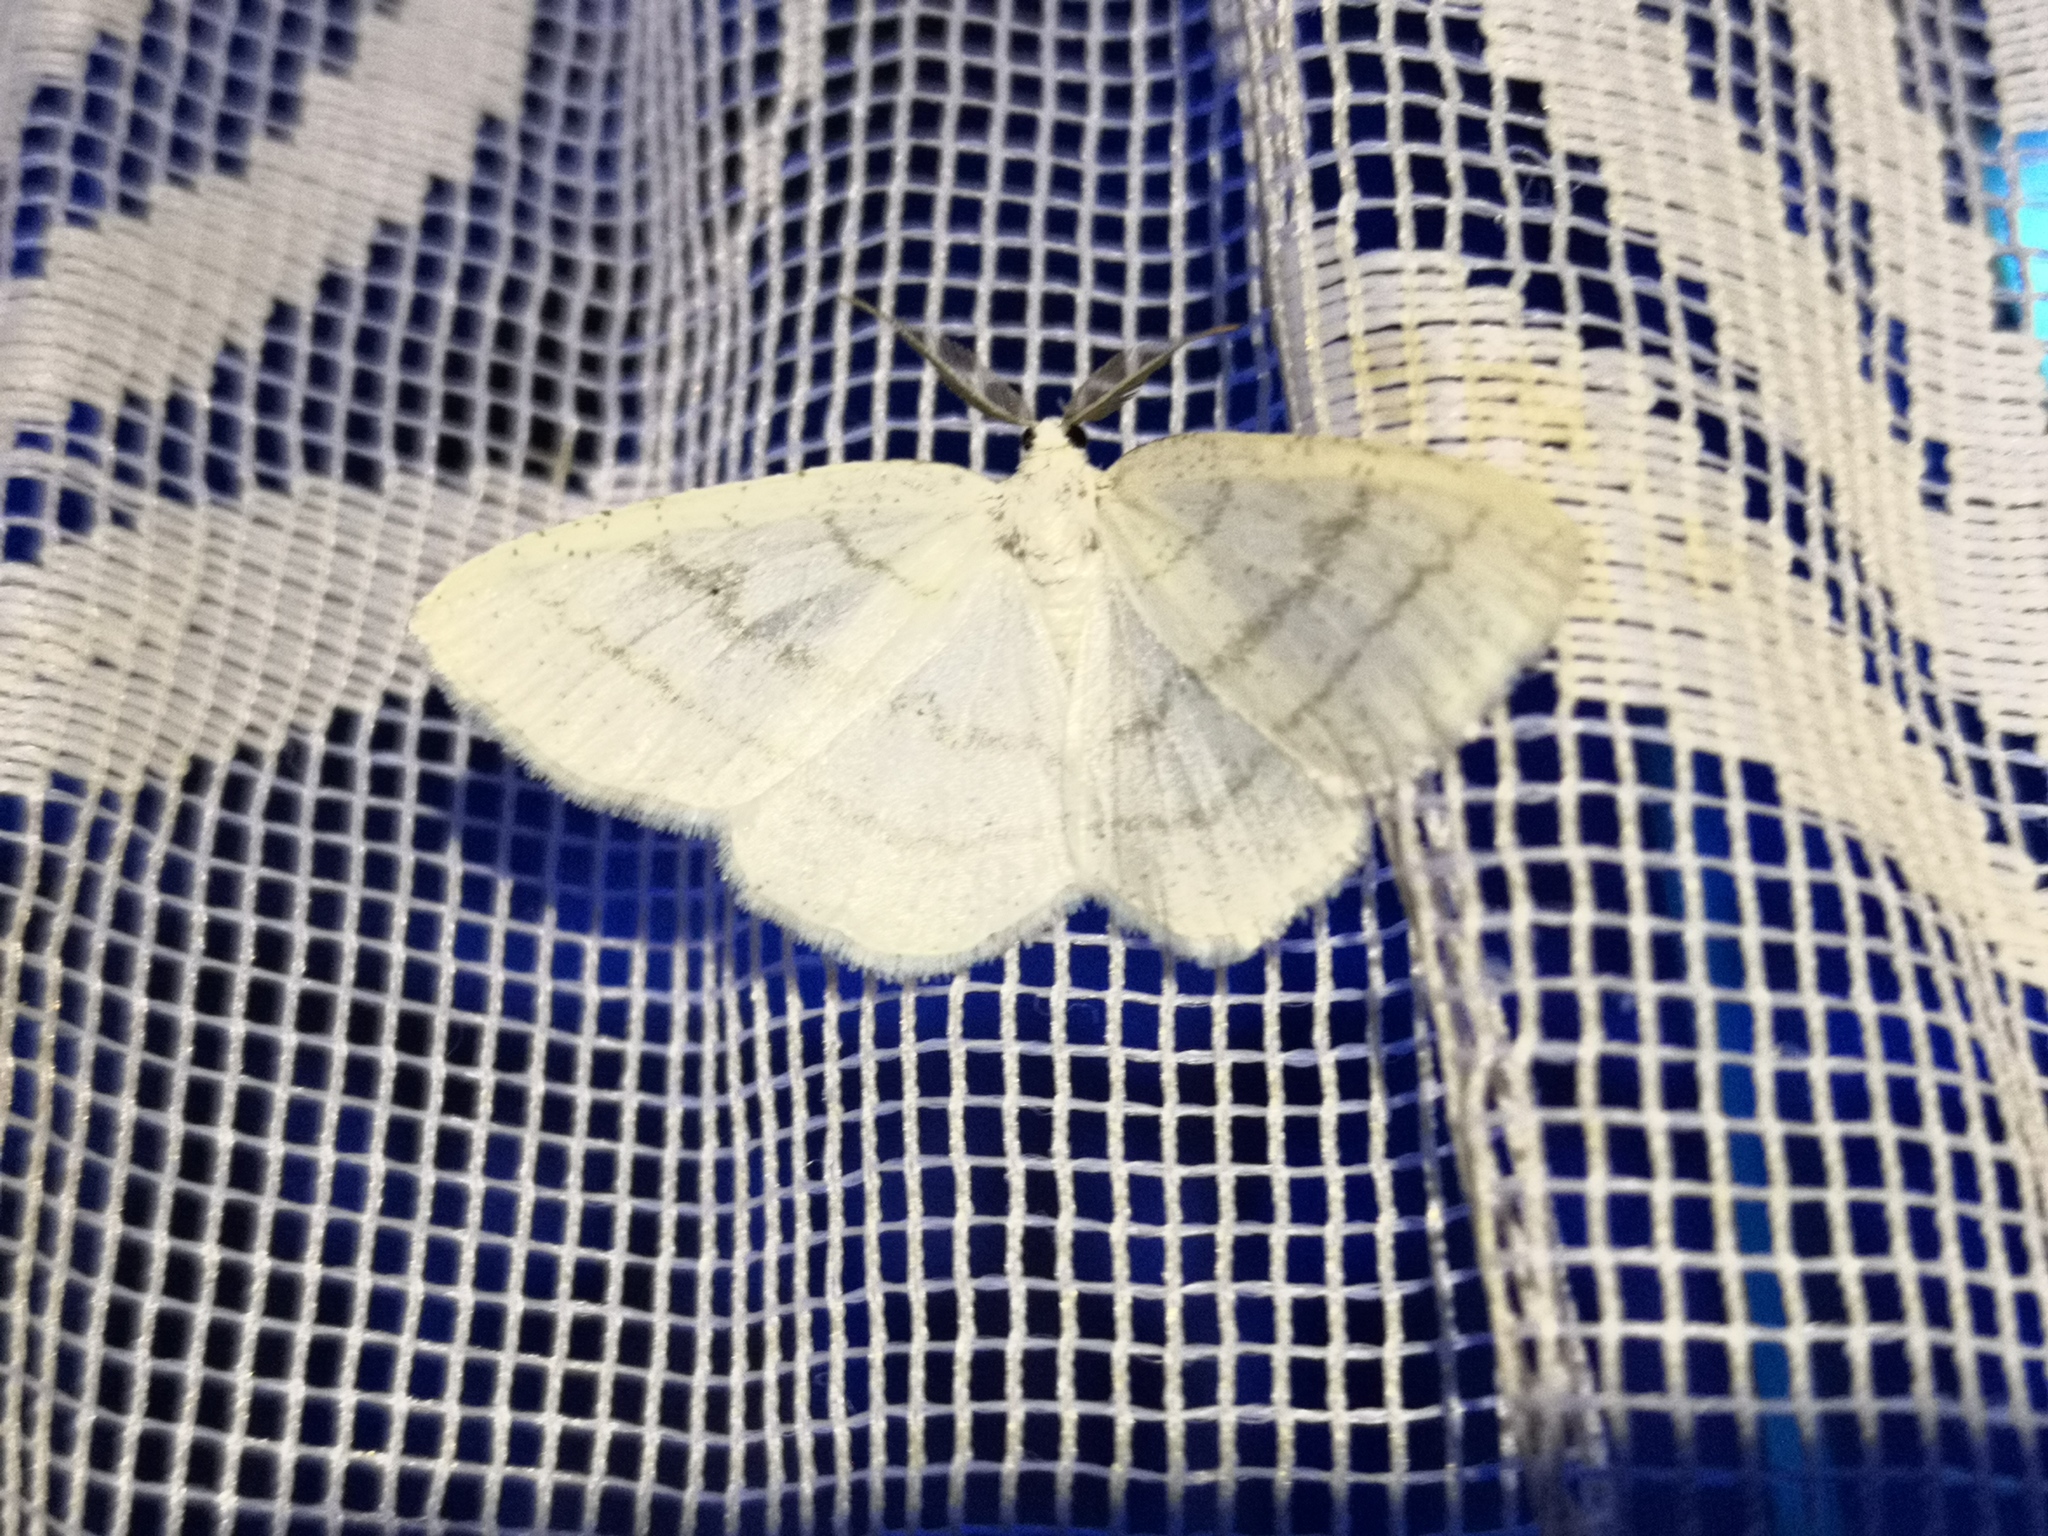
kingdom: Animalia
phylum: Arthropoda
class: Insecta
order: Lepidoptera
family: Geometridae
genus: Cabera
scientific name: Cabera pusaria
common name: Common white wave
